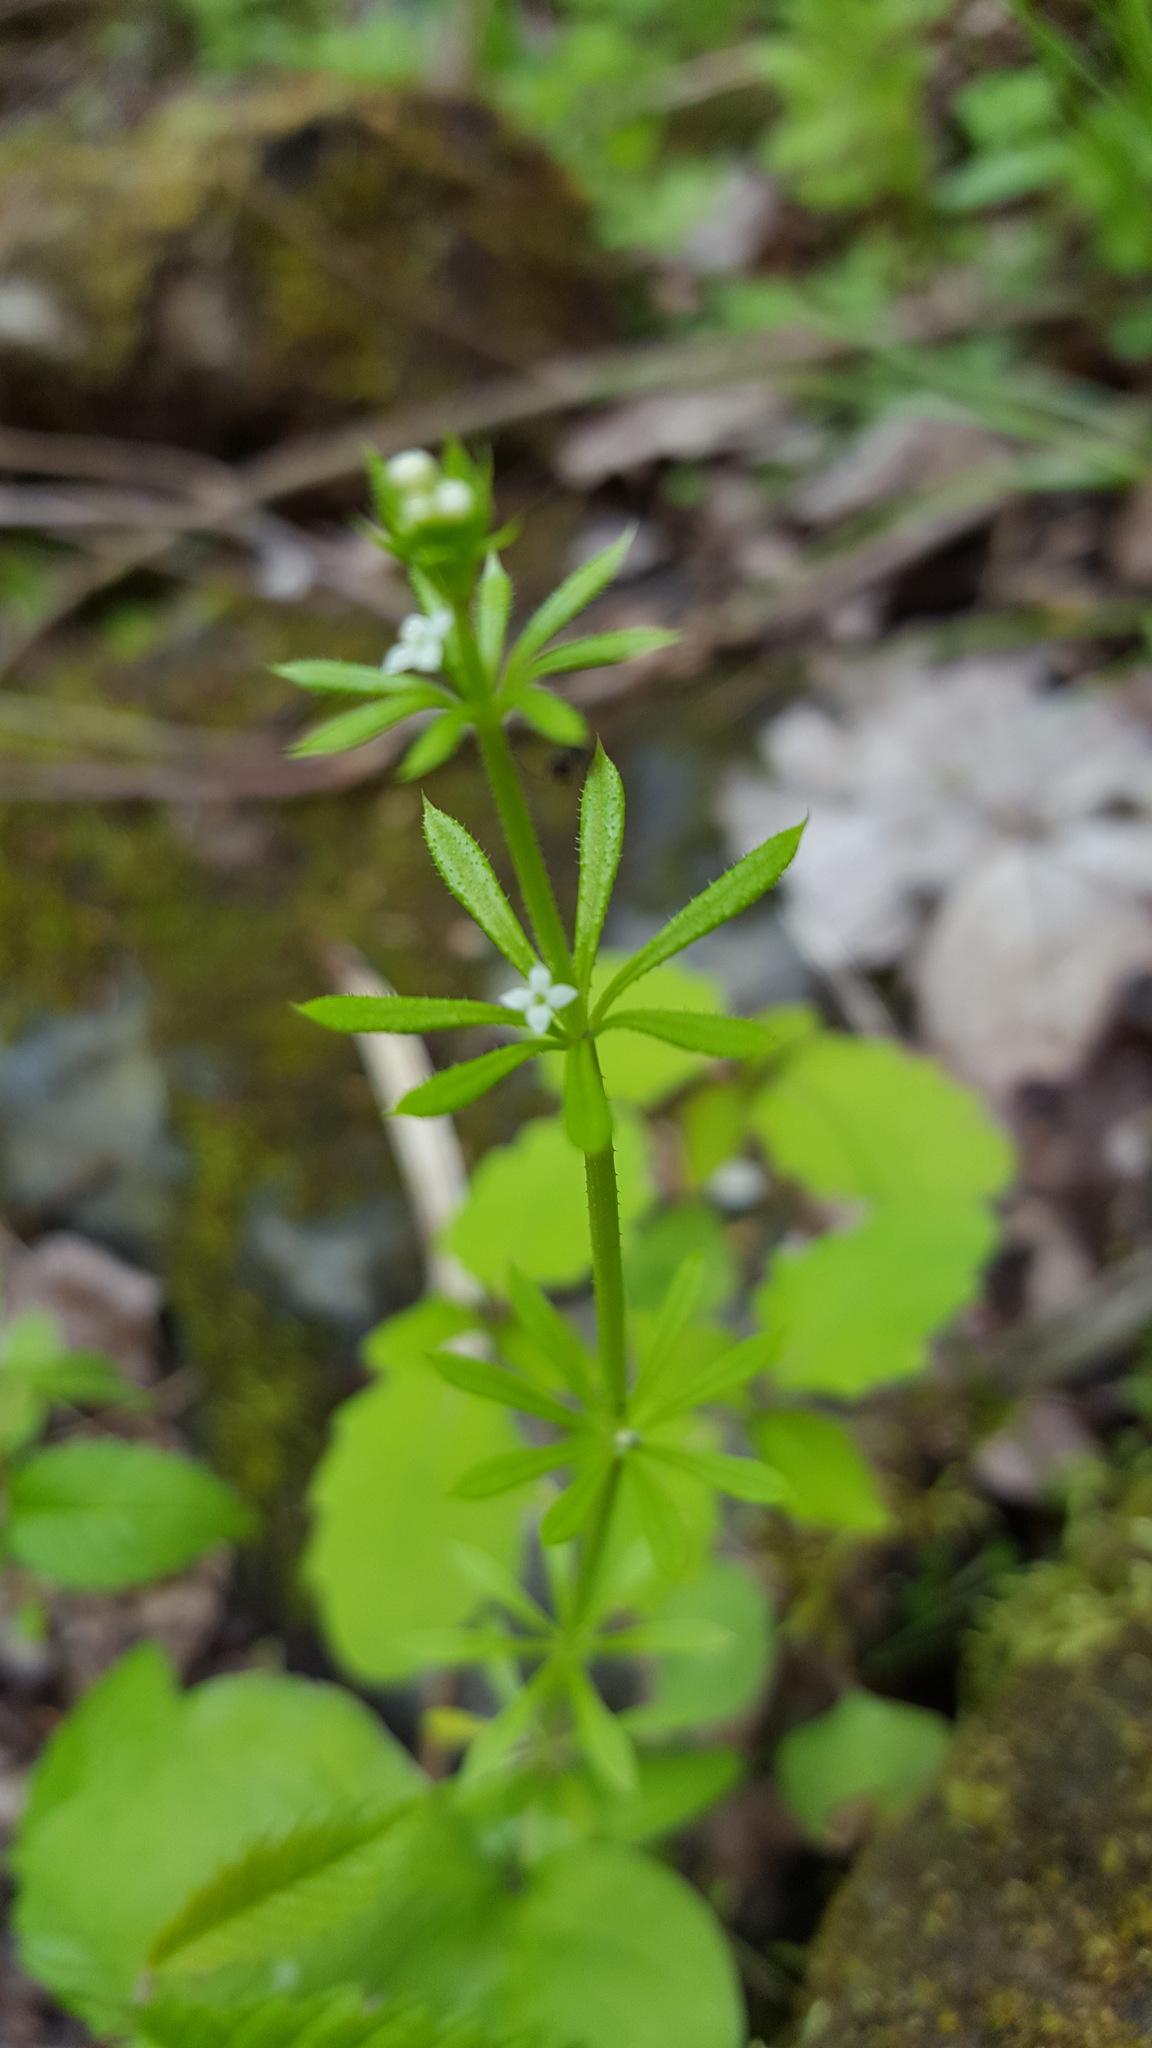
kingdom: Plantae
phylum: Tracheophyta
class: Magnoliopsida
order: Gentianales
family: Rubiaceae
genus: Galium
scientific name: Galium aparine
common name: Cleavers
